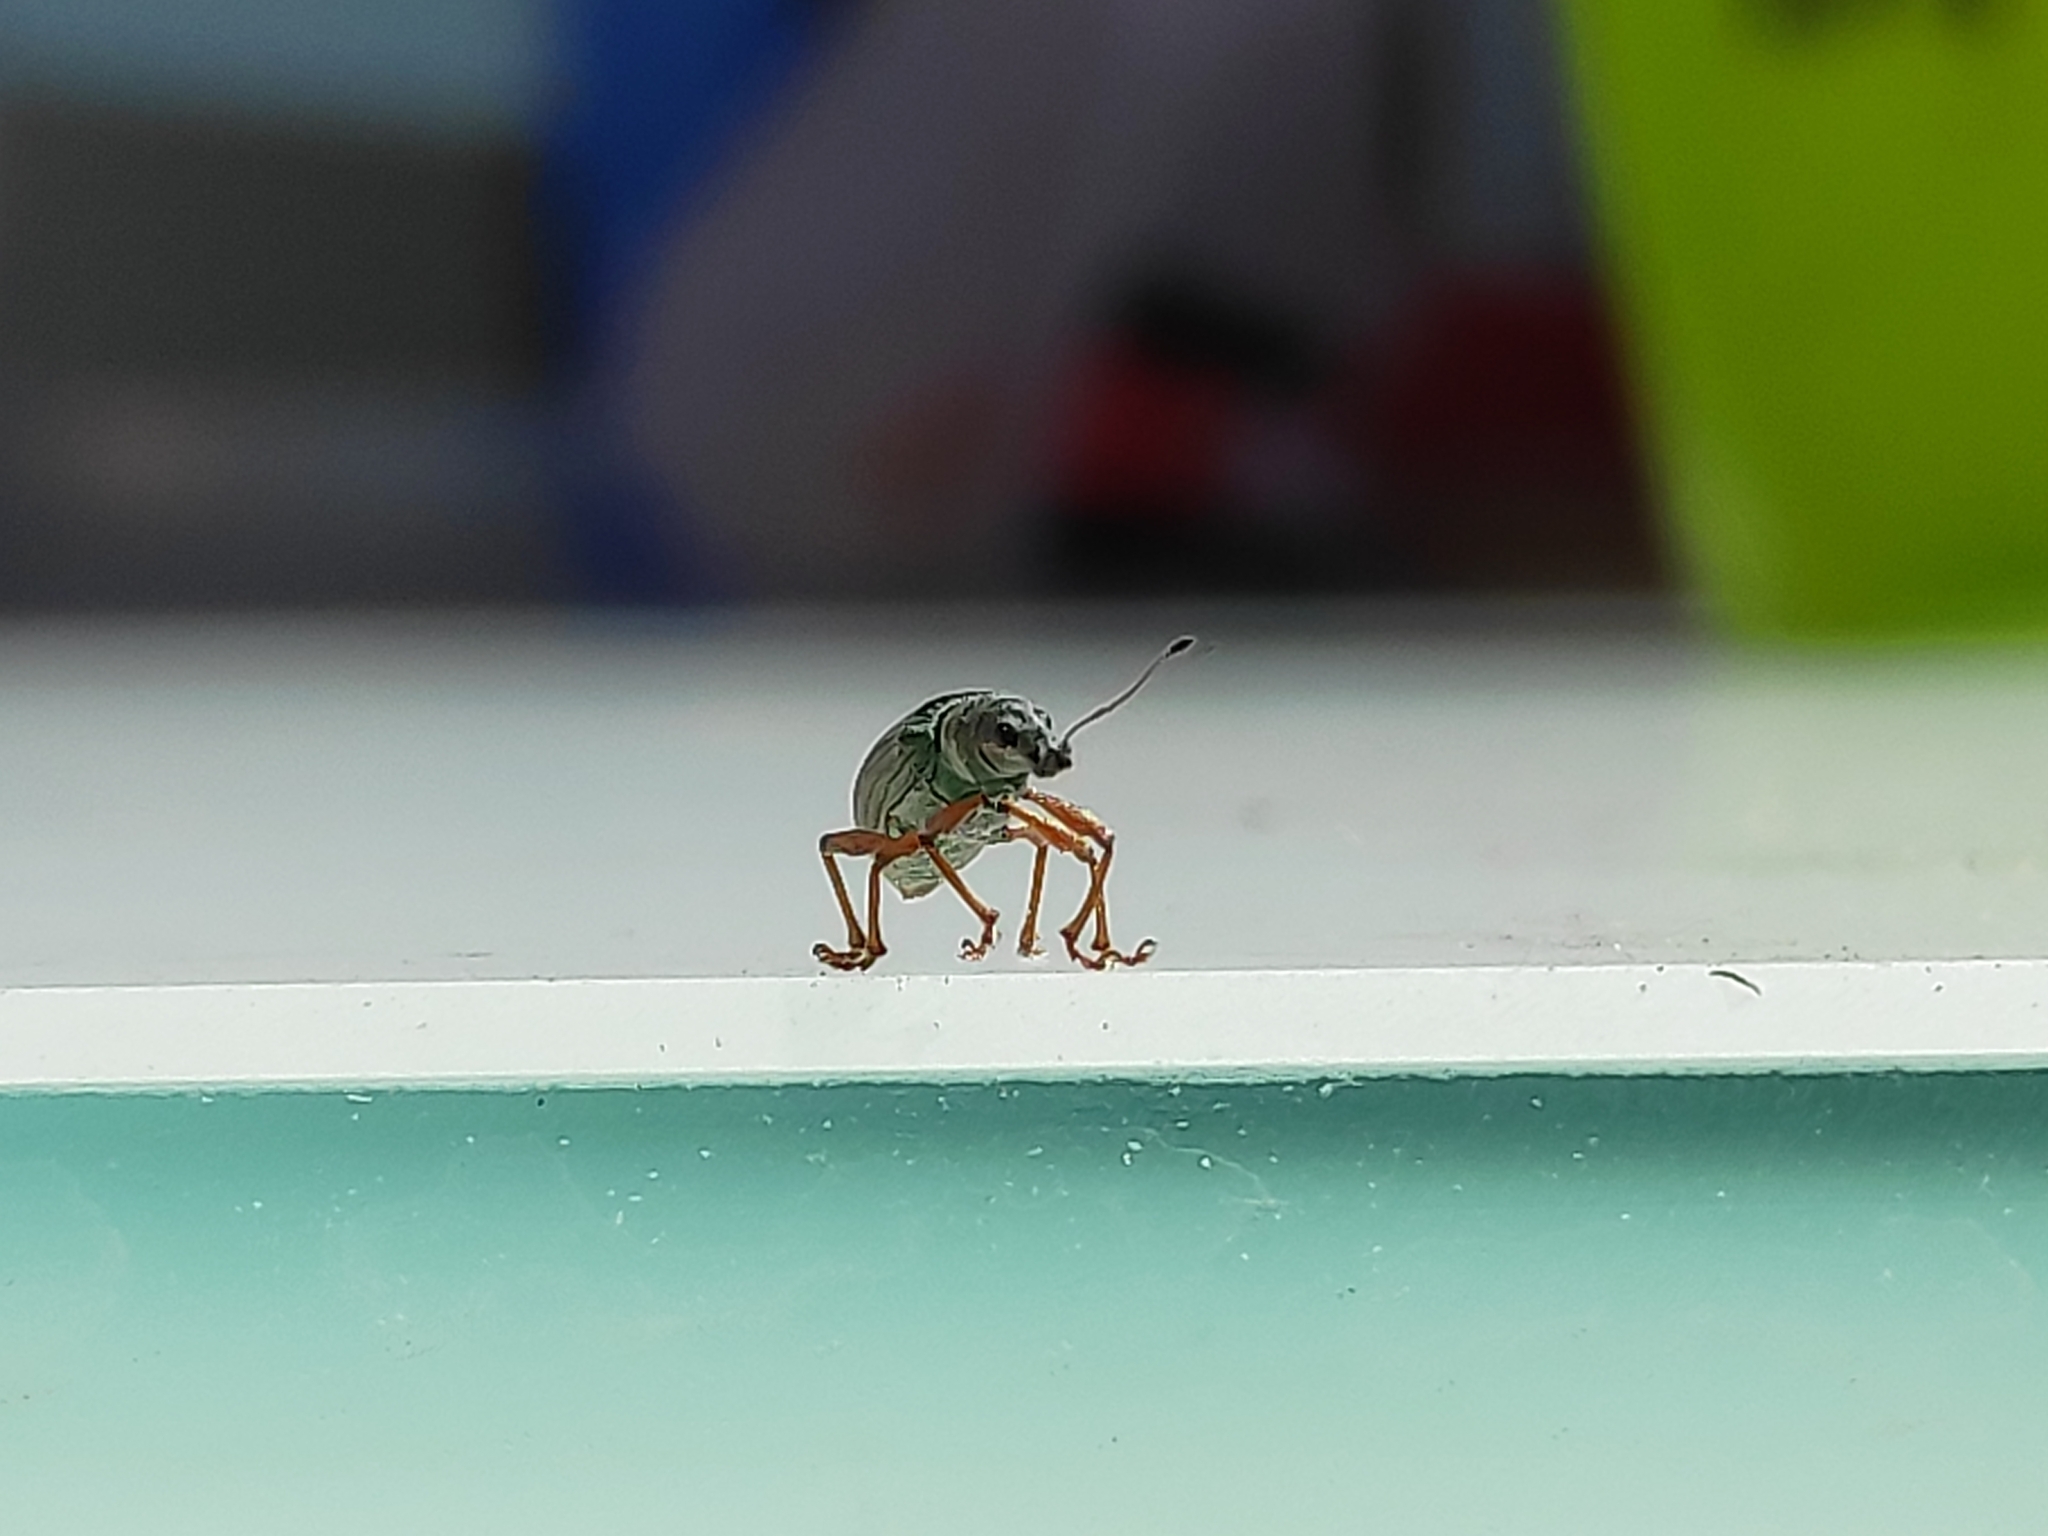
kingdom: Animalia
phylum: Arthropoda
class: Insecta
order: Coleoptera
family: Curculionidae
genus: Polydrusus
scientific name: Polydrusus formosus
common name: Weevil
